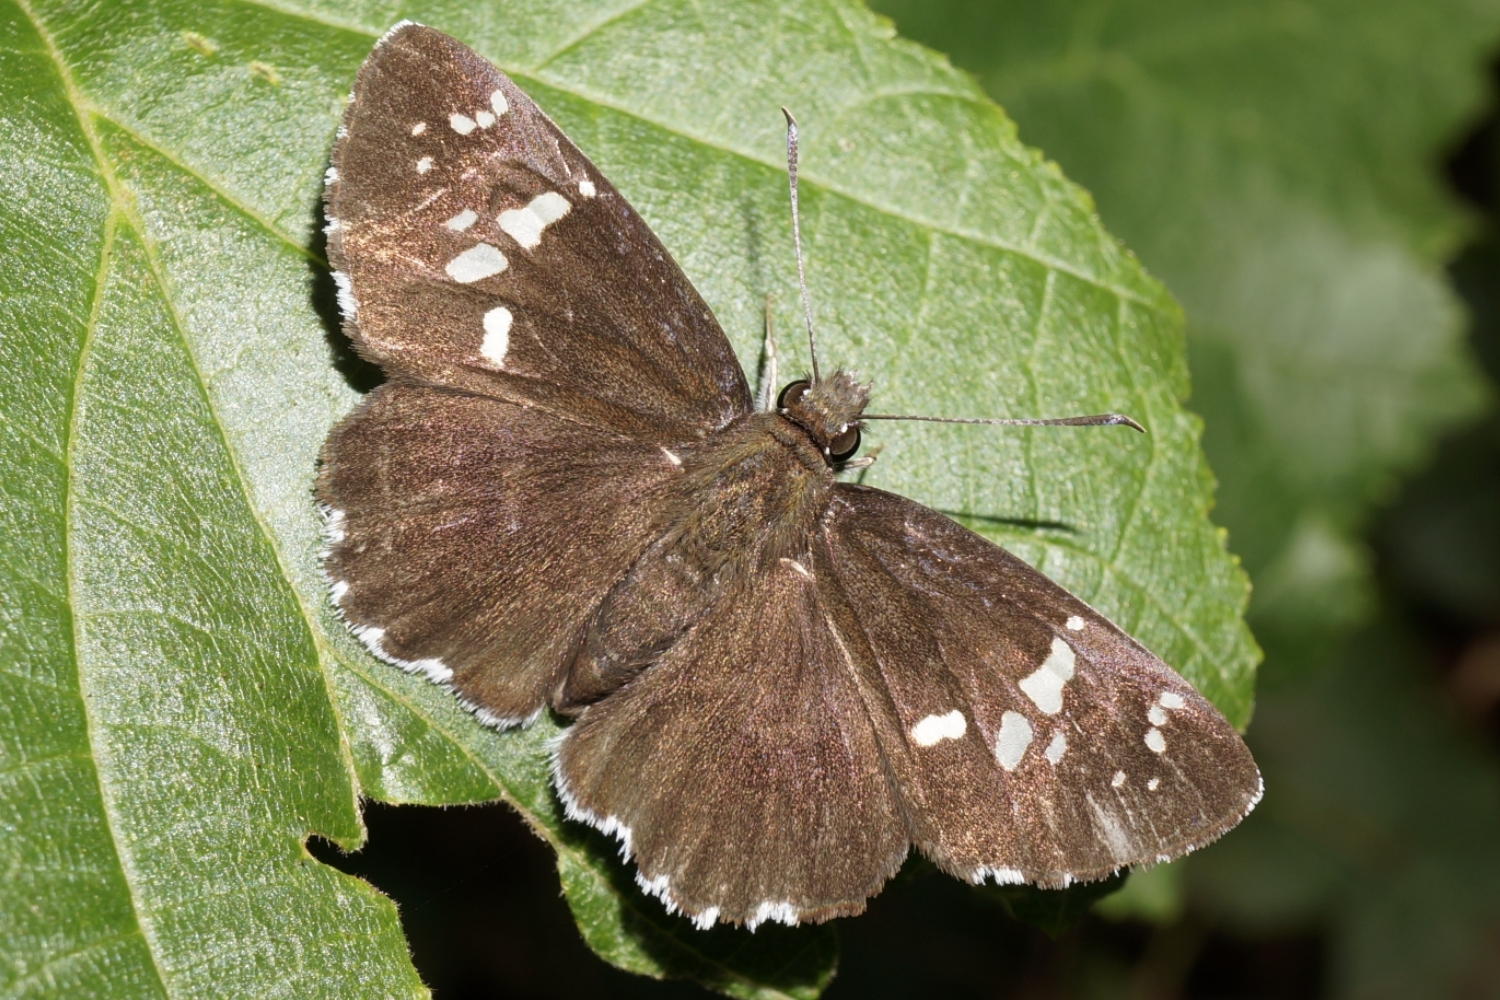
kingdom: Animalia
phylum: Arthropoda
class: Insecta
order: Lepidoptera
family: Hesperiidae
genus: Daimio
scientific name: Daimio tethys
